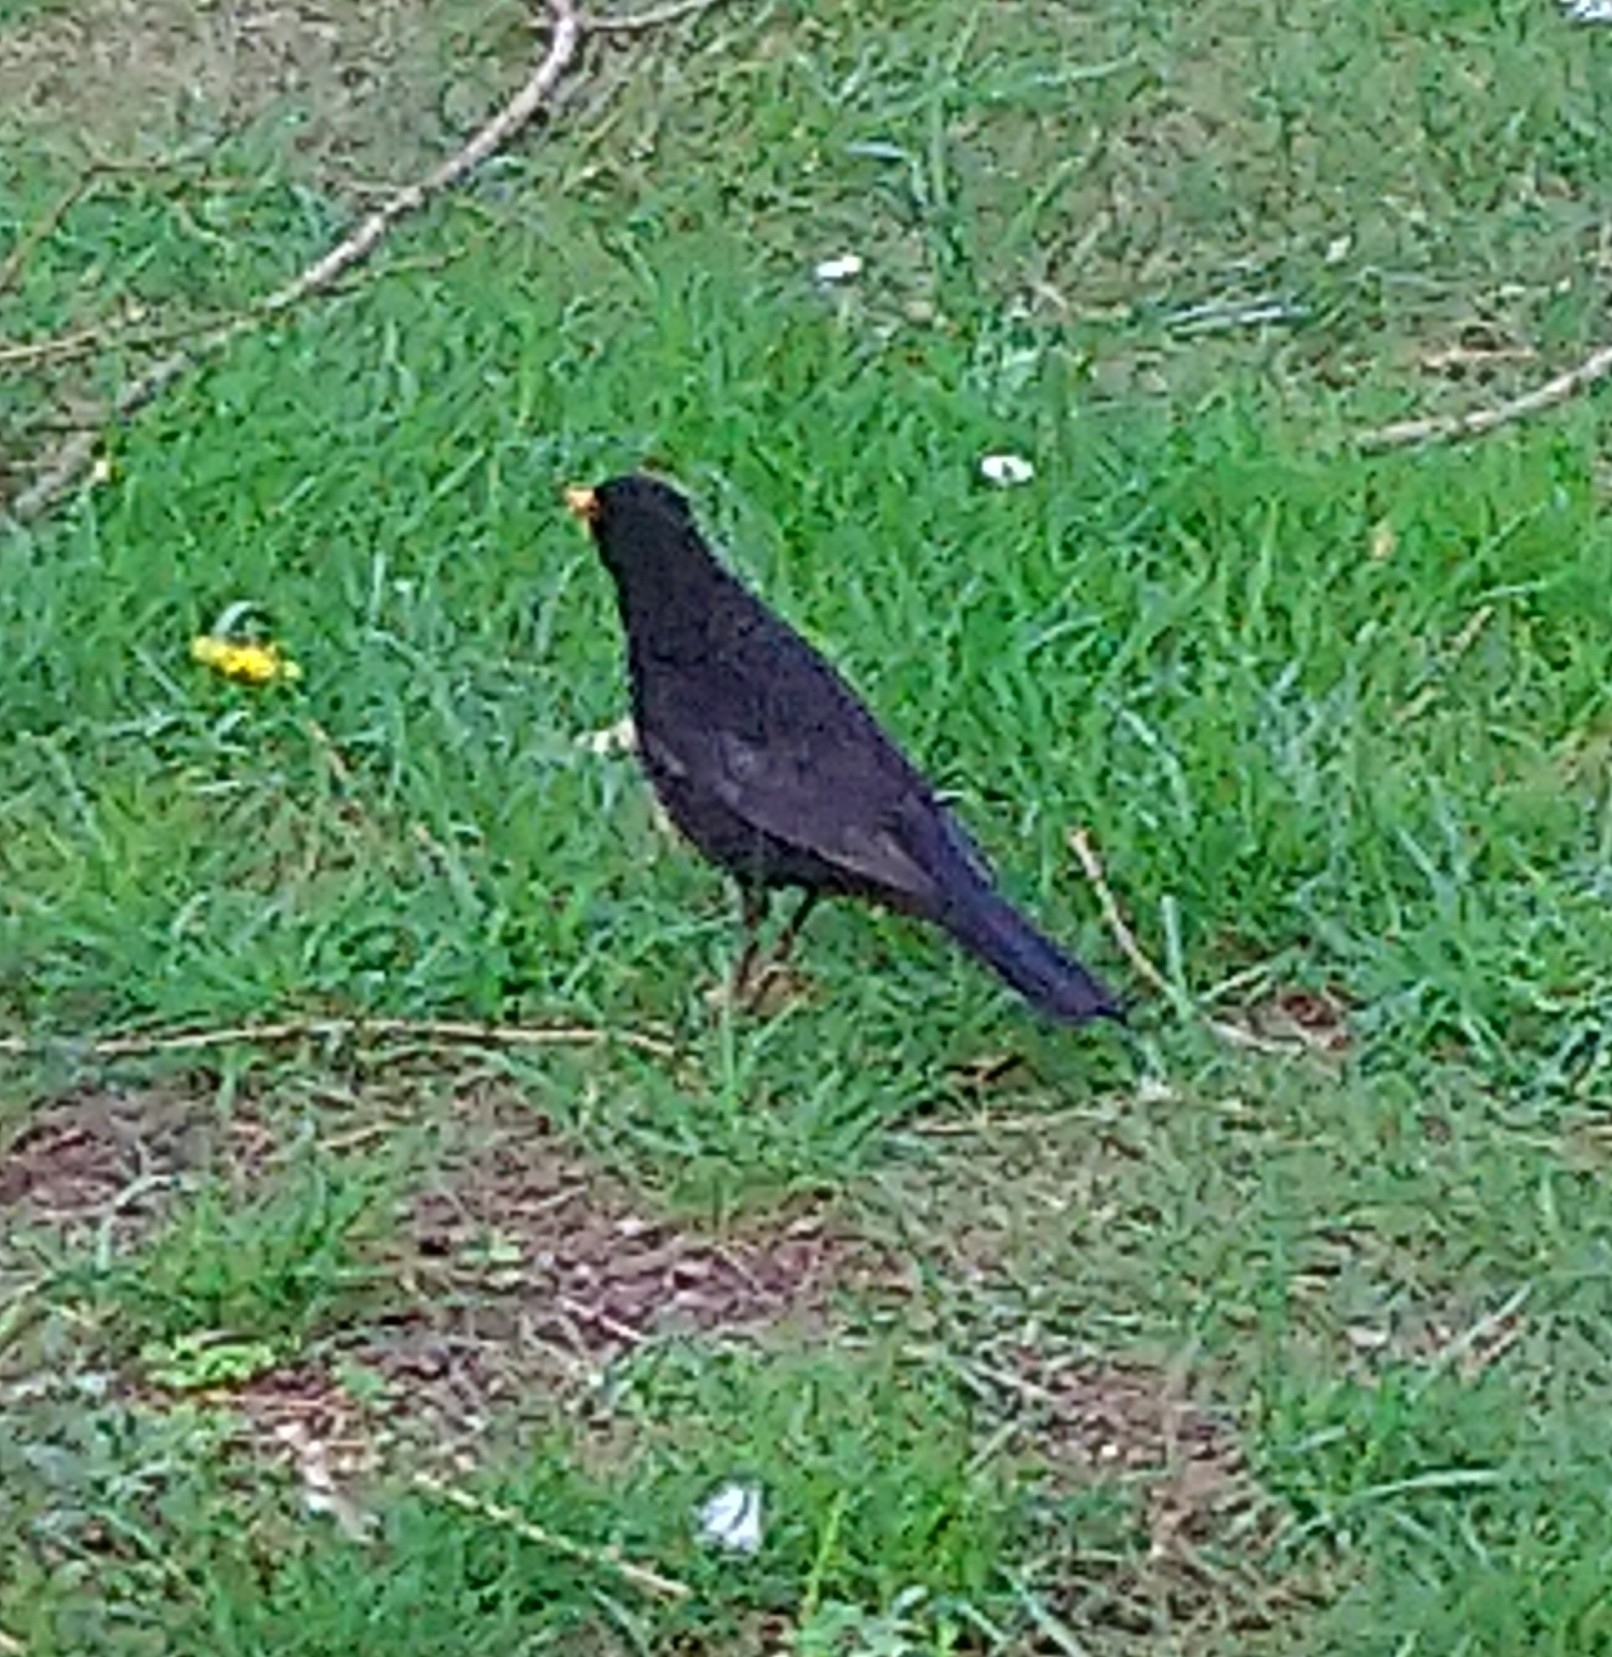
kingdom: Animalia
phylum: Chordata
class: Aves
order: Passeriformes
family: Turdidae
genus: Turdus
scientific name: Turdus merula
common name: Common blackbird
